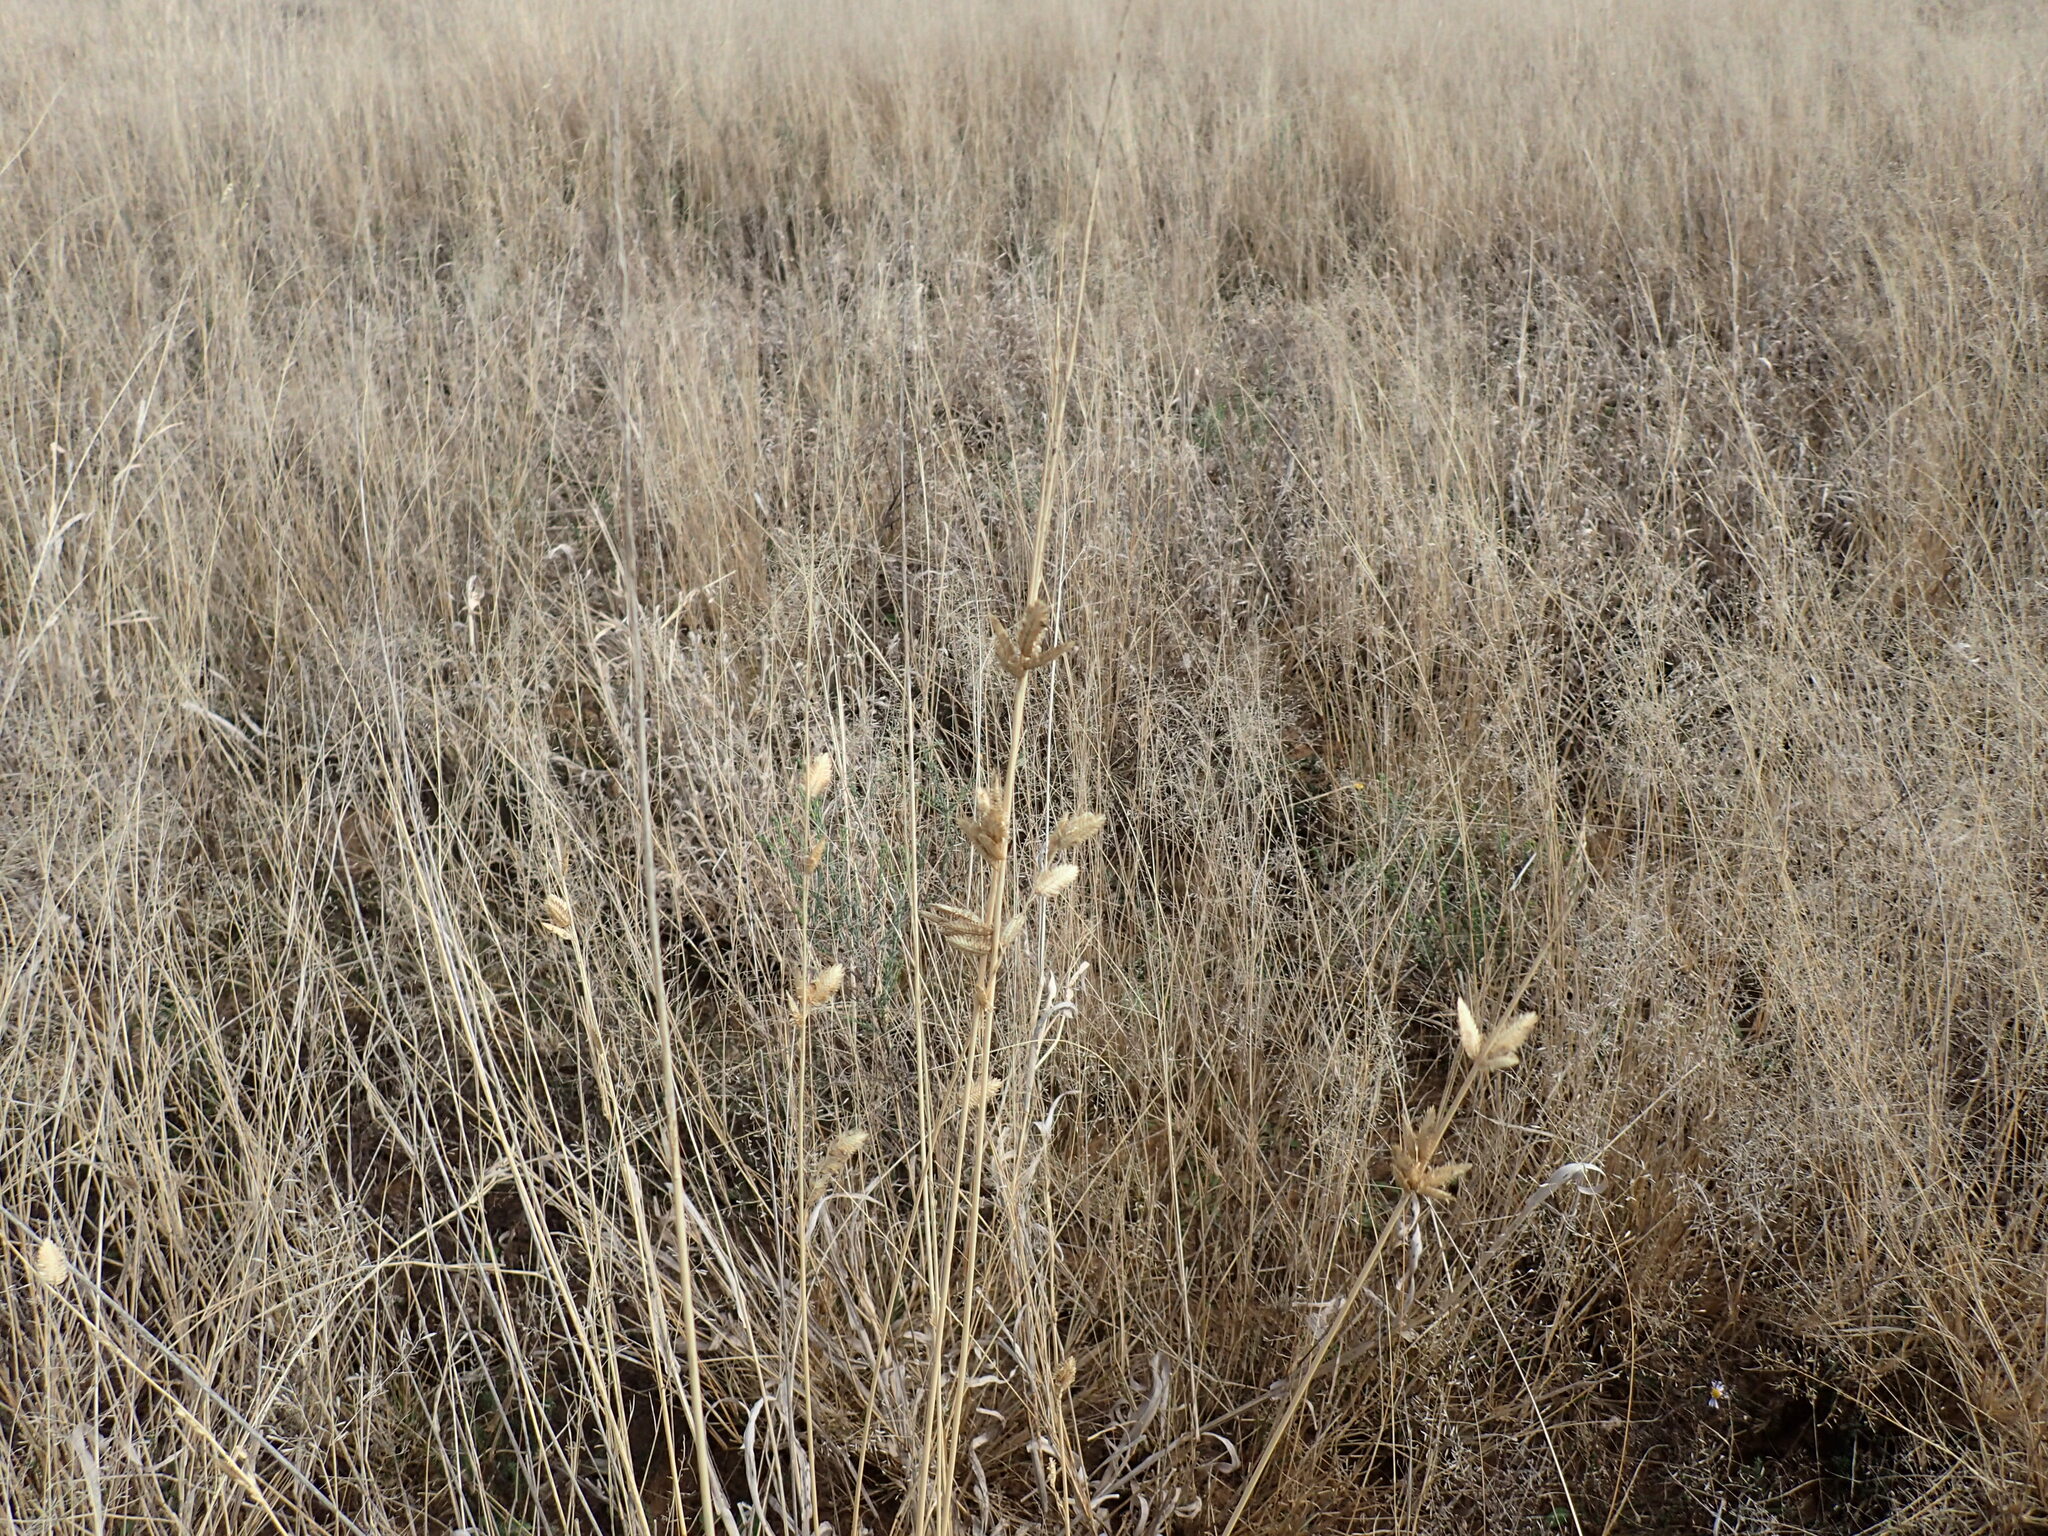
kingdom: Plantae
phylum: Tracheophyta
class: Liliopsida
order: Poales
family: Poaceae
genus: Eragrostis
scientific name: Eragrostis superba
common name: Wilman lovegrass
